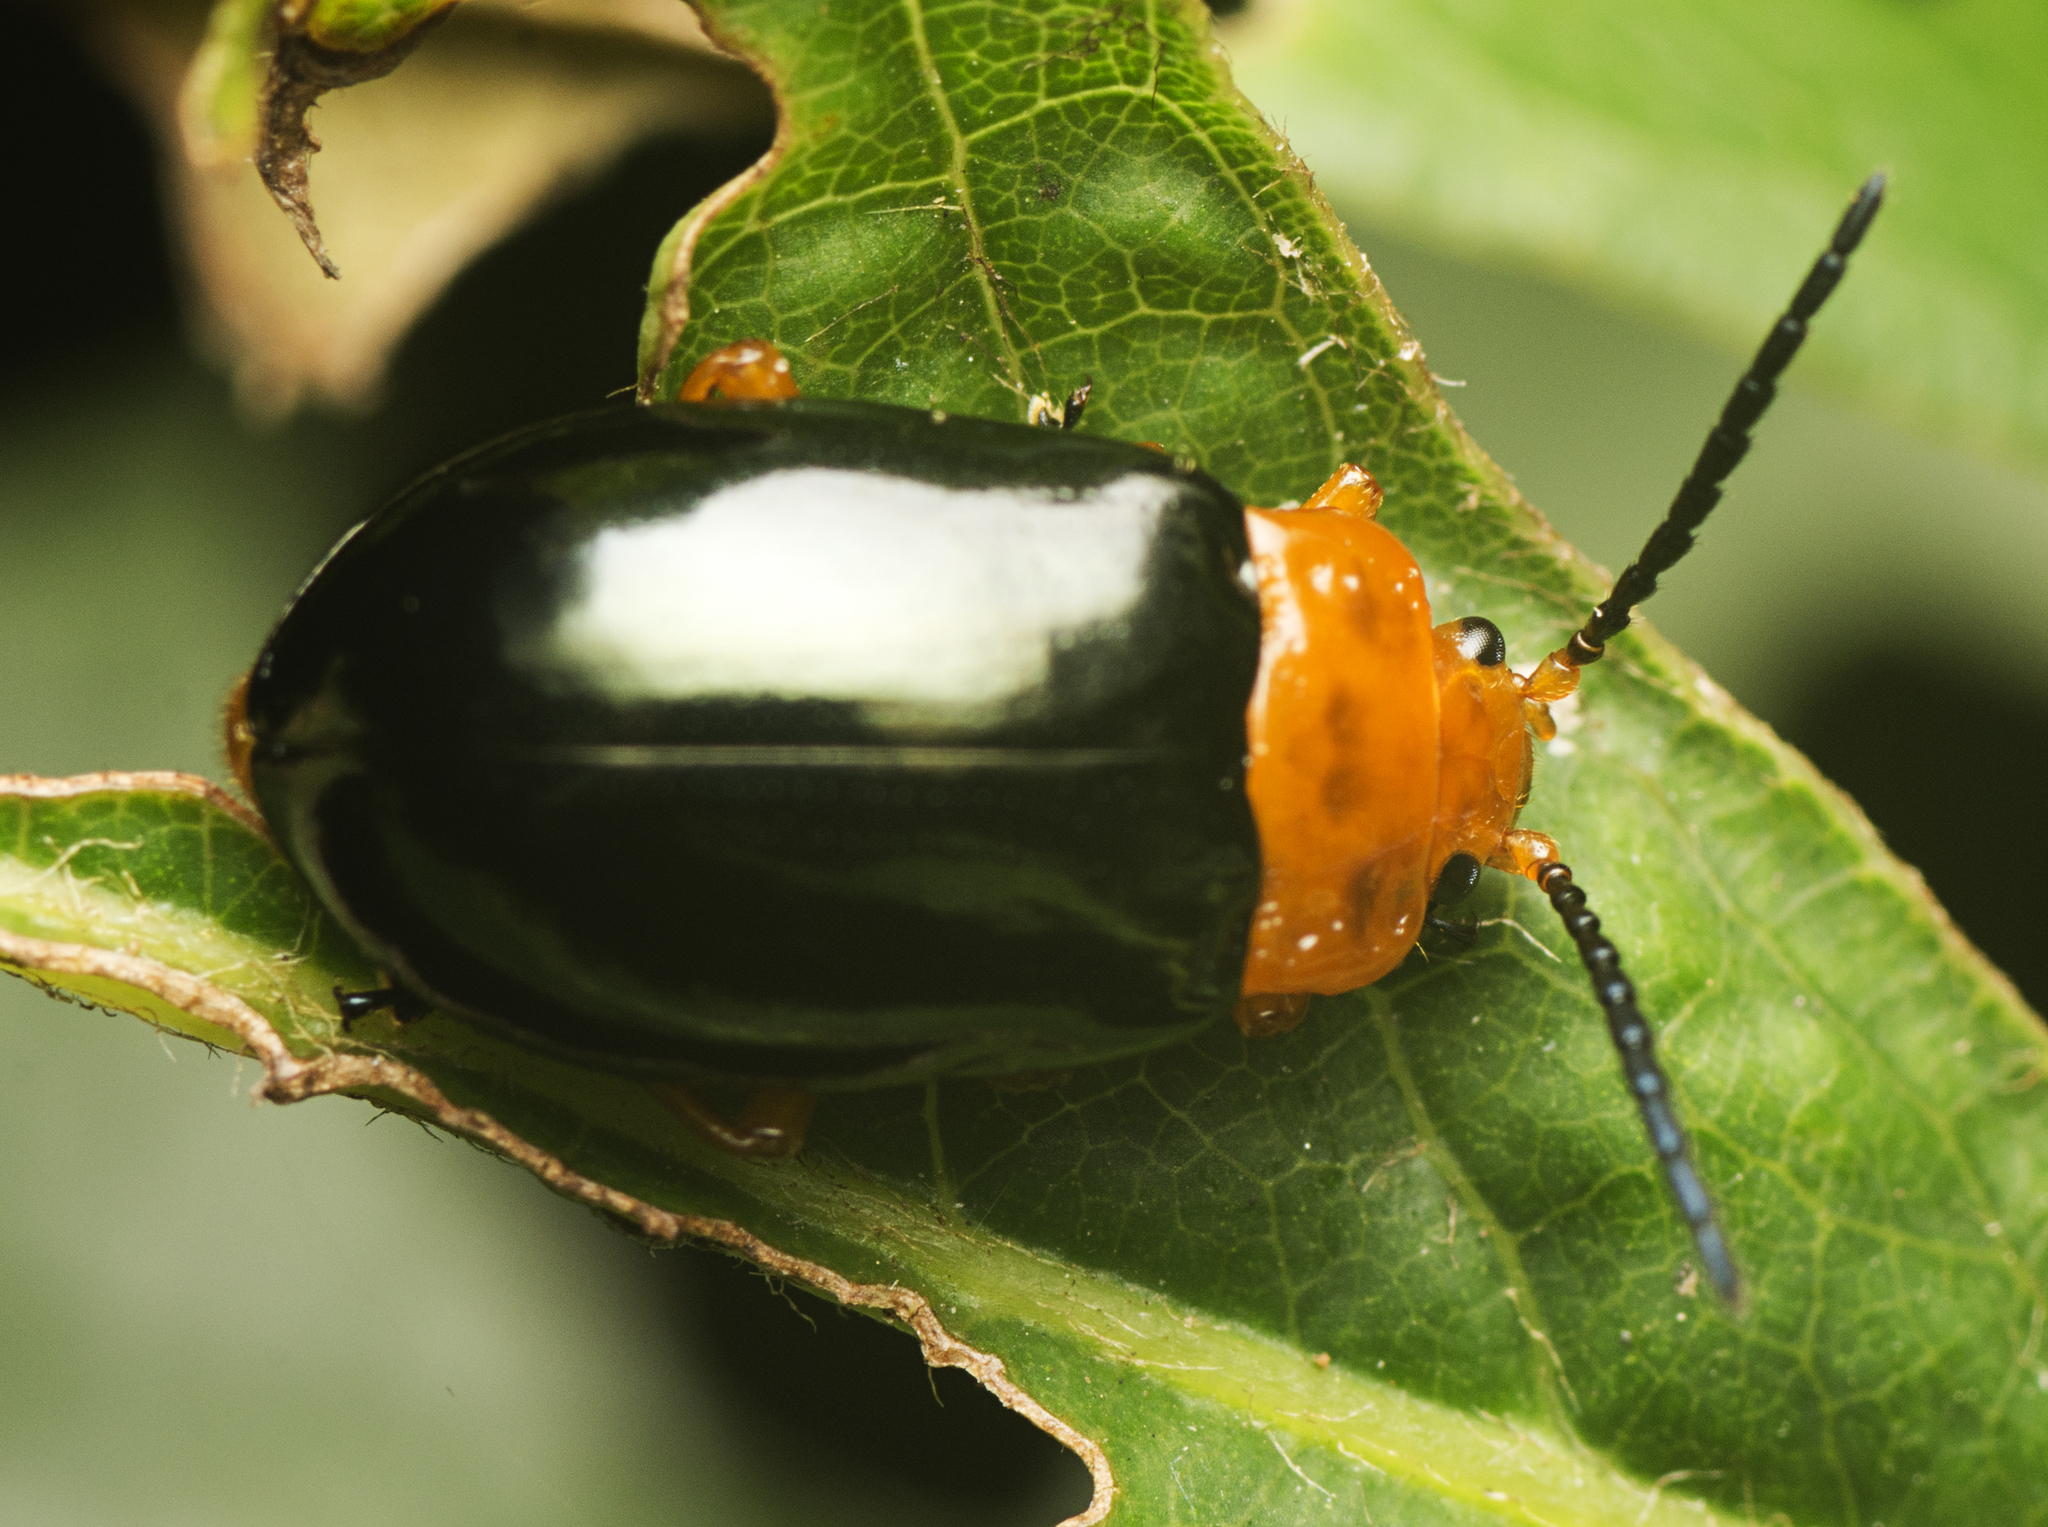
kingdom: Animalia
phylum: Arthropoda
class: Insecta
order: Coleoptera
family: Chrysomelidae
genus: Lamprolina
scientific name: Lamprolina
